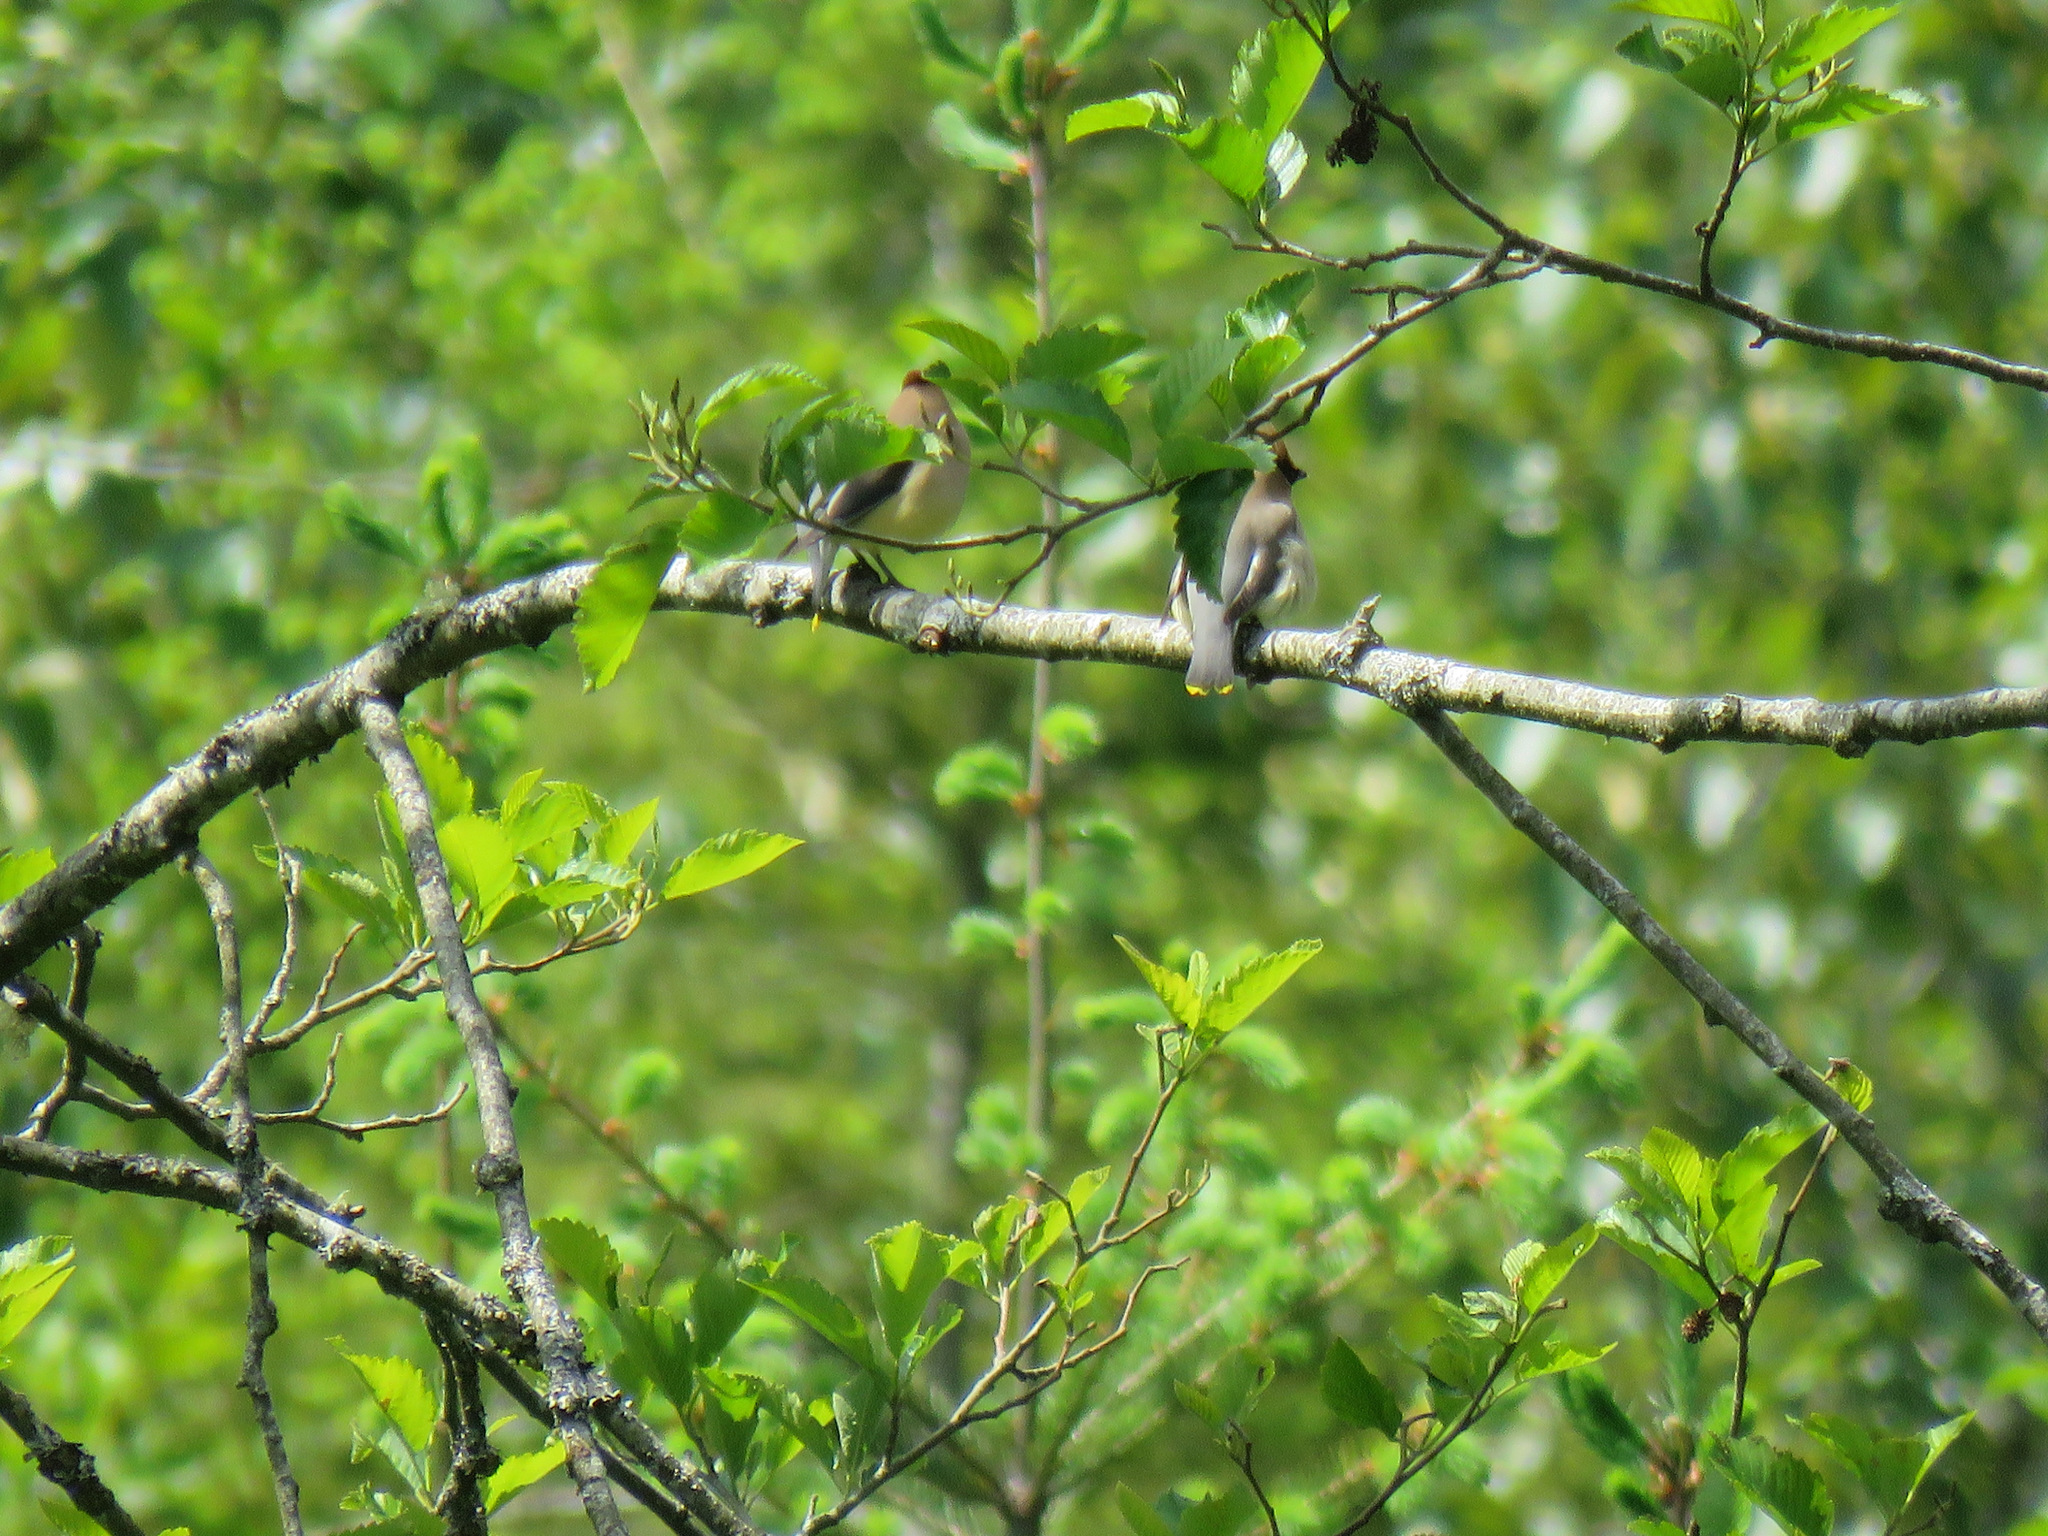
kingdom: Animalia
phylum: Chordata
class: Aves
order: Passeriformes
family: Bombycillidae
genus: Bombycilla
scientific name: Bombycilla cedrorum
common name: Cedar waxwing
